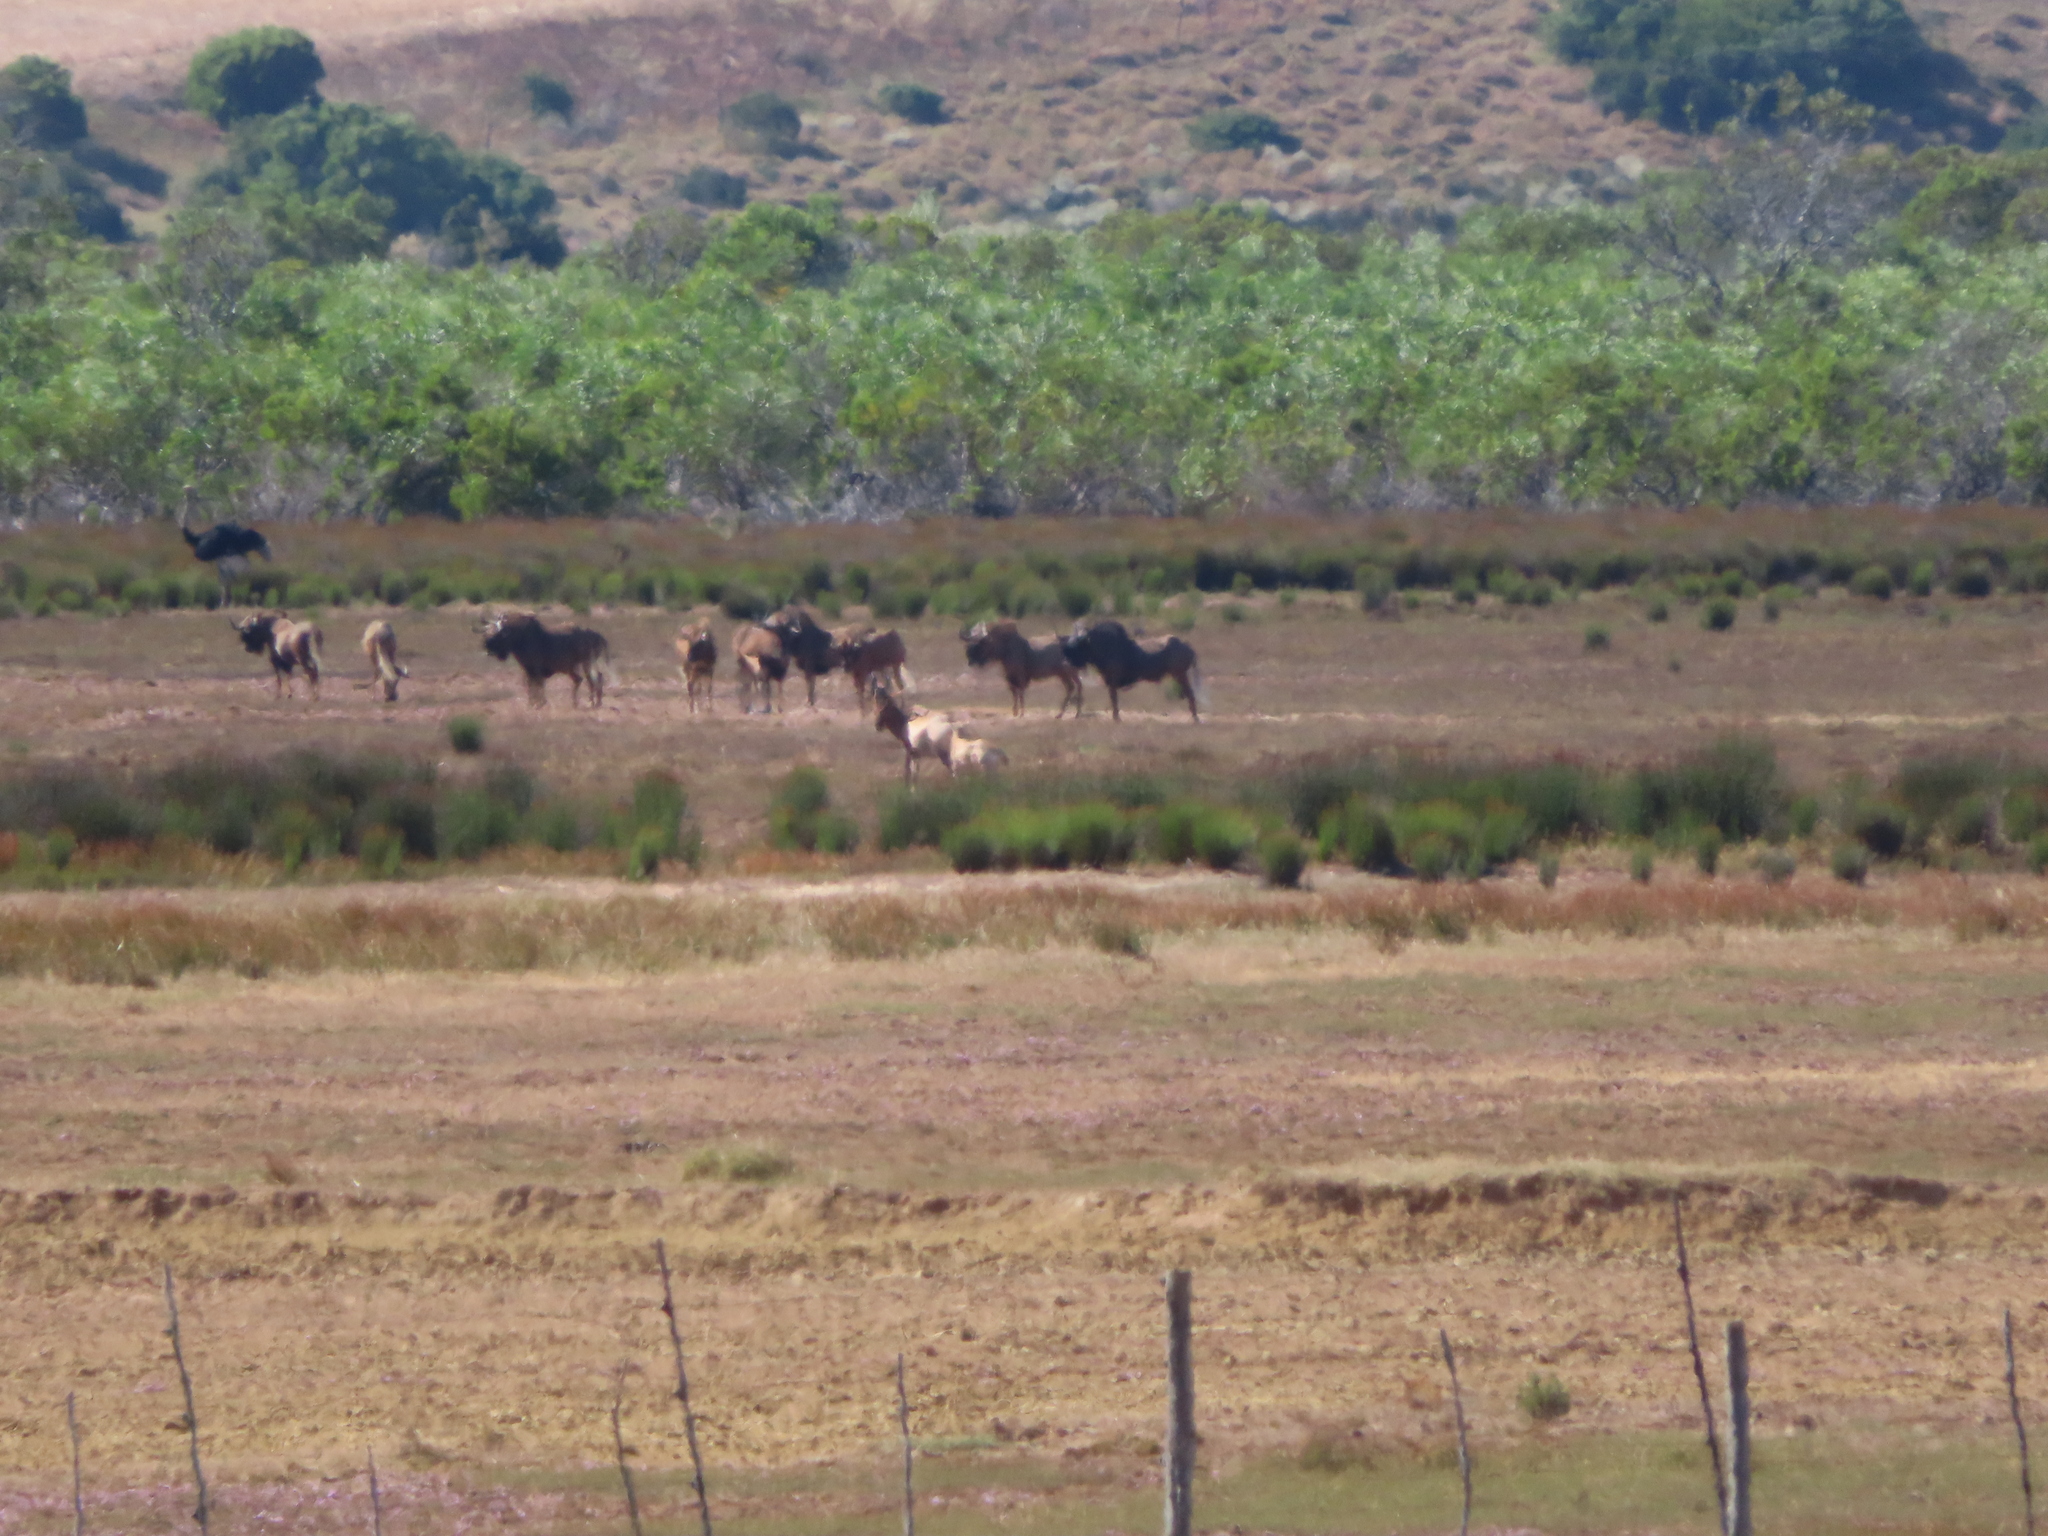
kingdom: Animalia
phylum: Chordata
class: Aves
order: Struthioniformes
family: Struthionidae
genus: Struthio
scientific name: Struthio camelus
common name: Common ostrich
